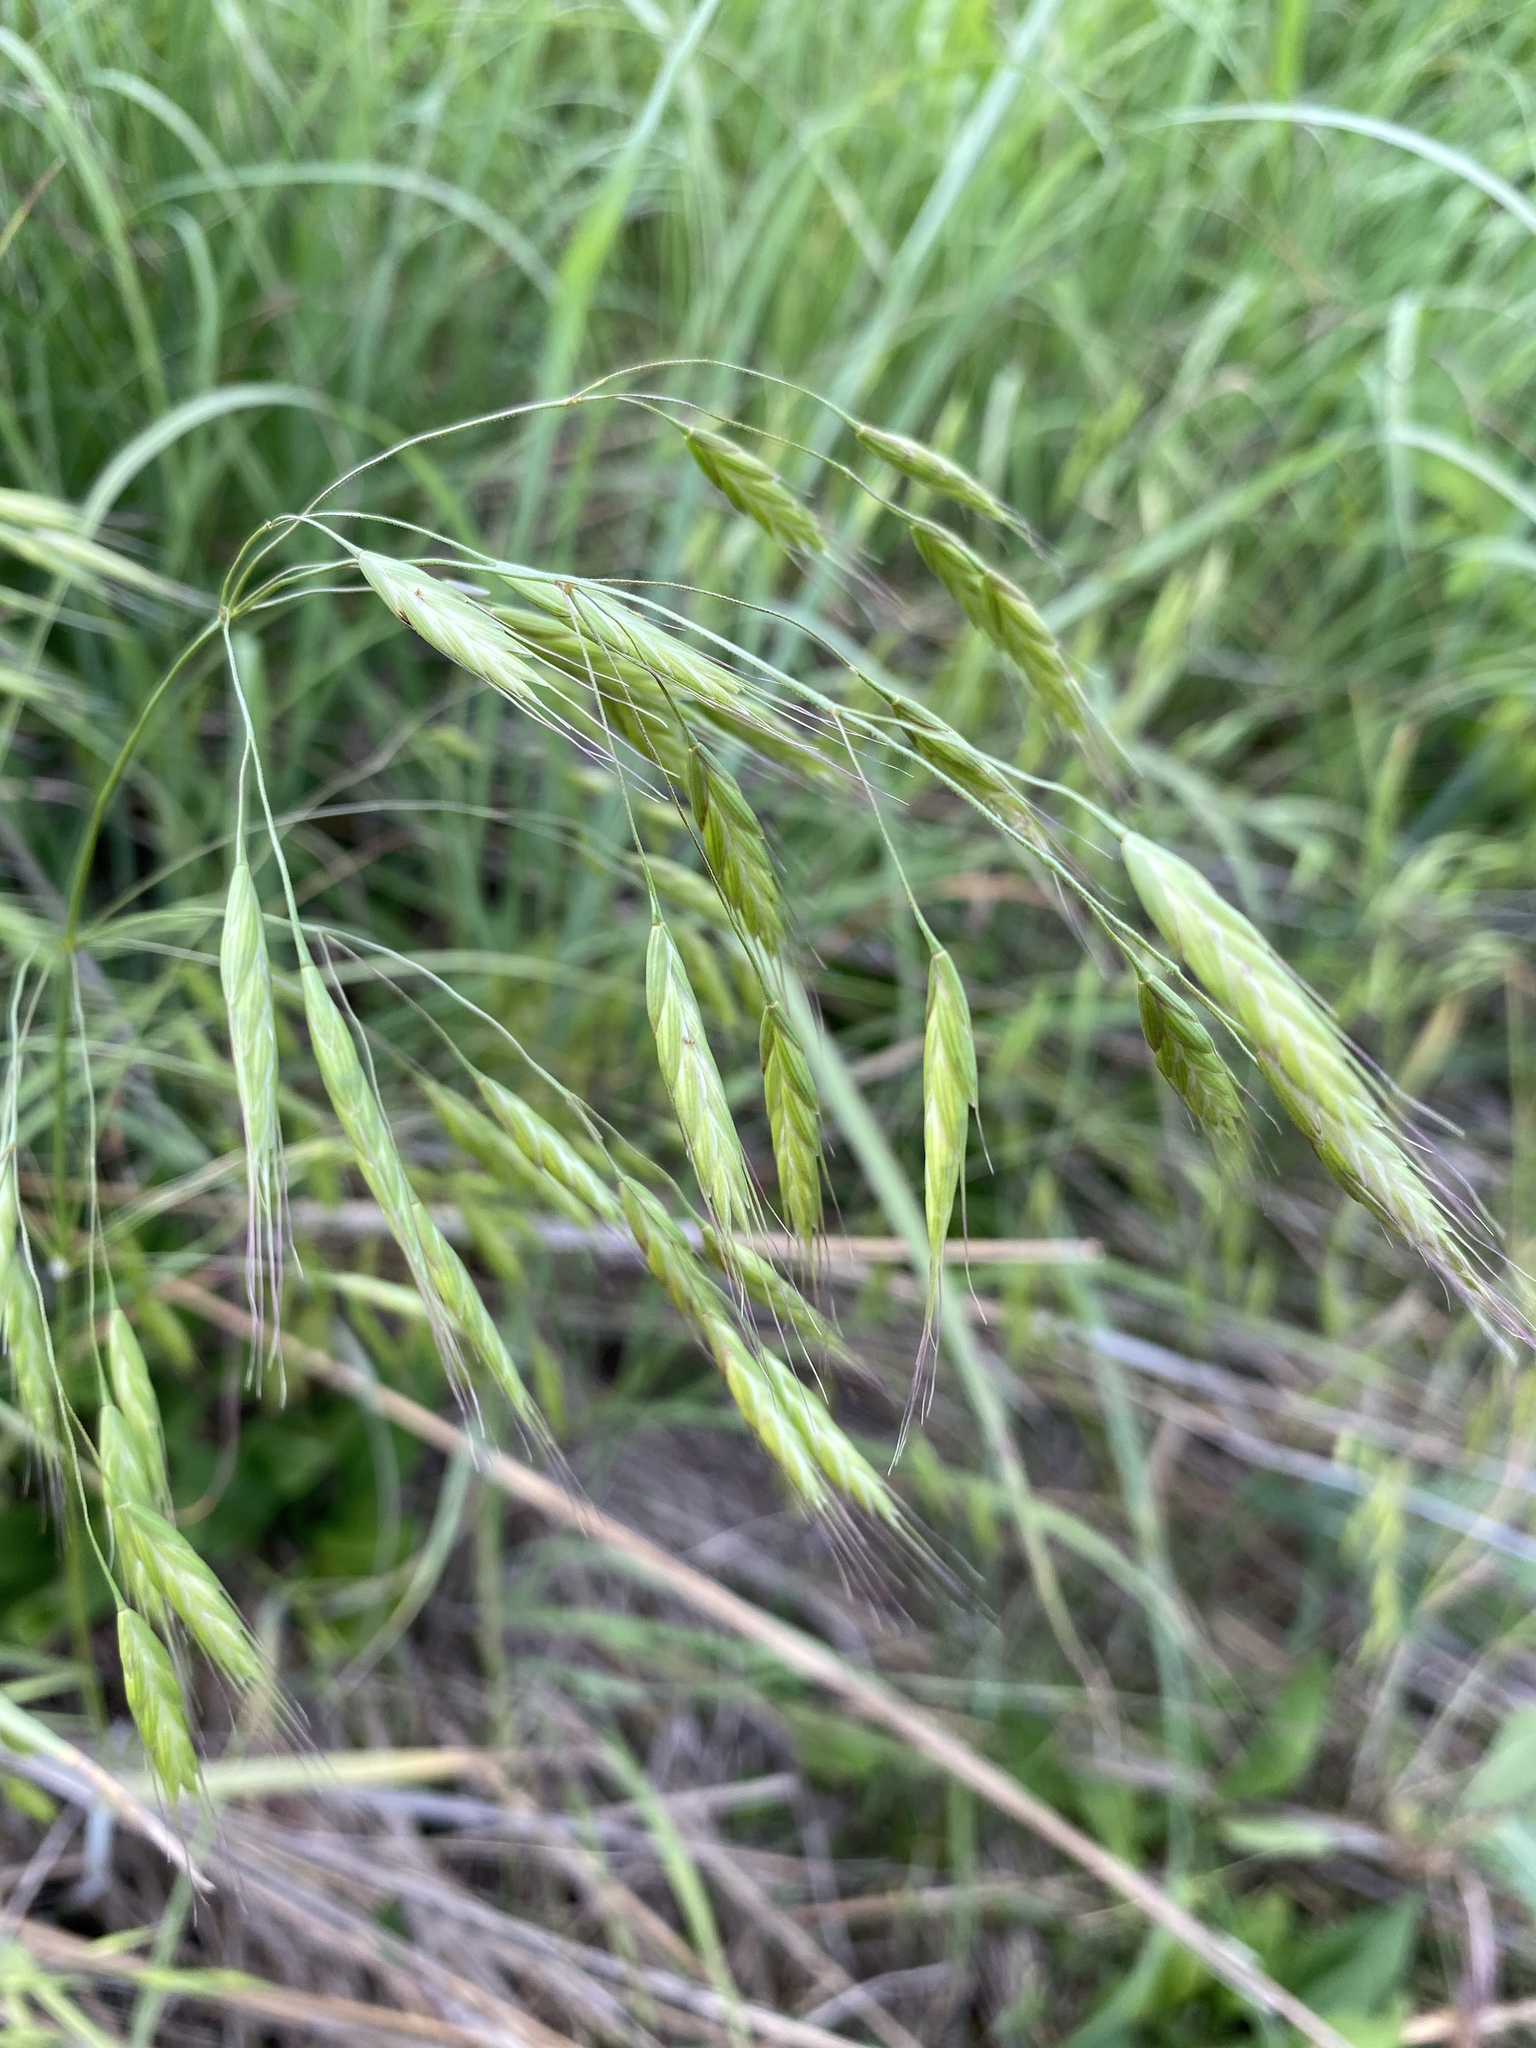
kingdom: Plantae
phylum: Tracheophyta
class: Liliopsida
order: Poales
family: Poaceae
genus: Bromus
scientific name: Bromus japonicus
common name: Japanese brome
